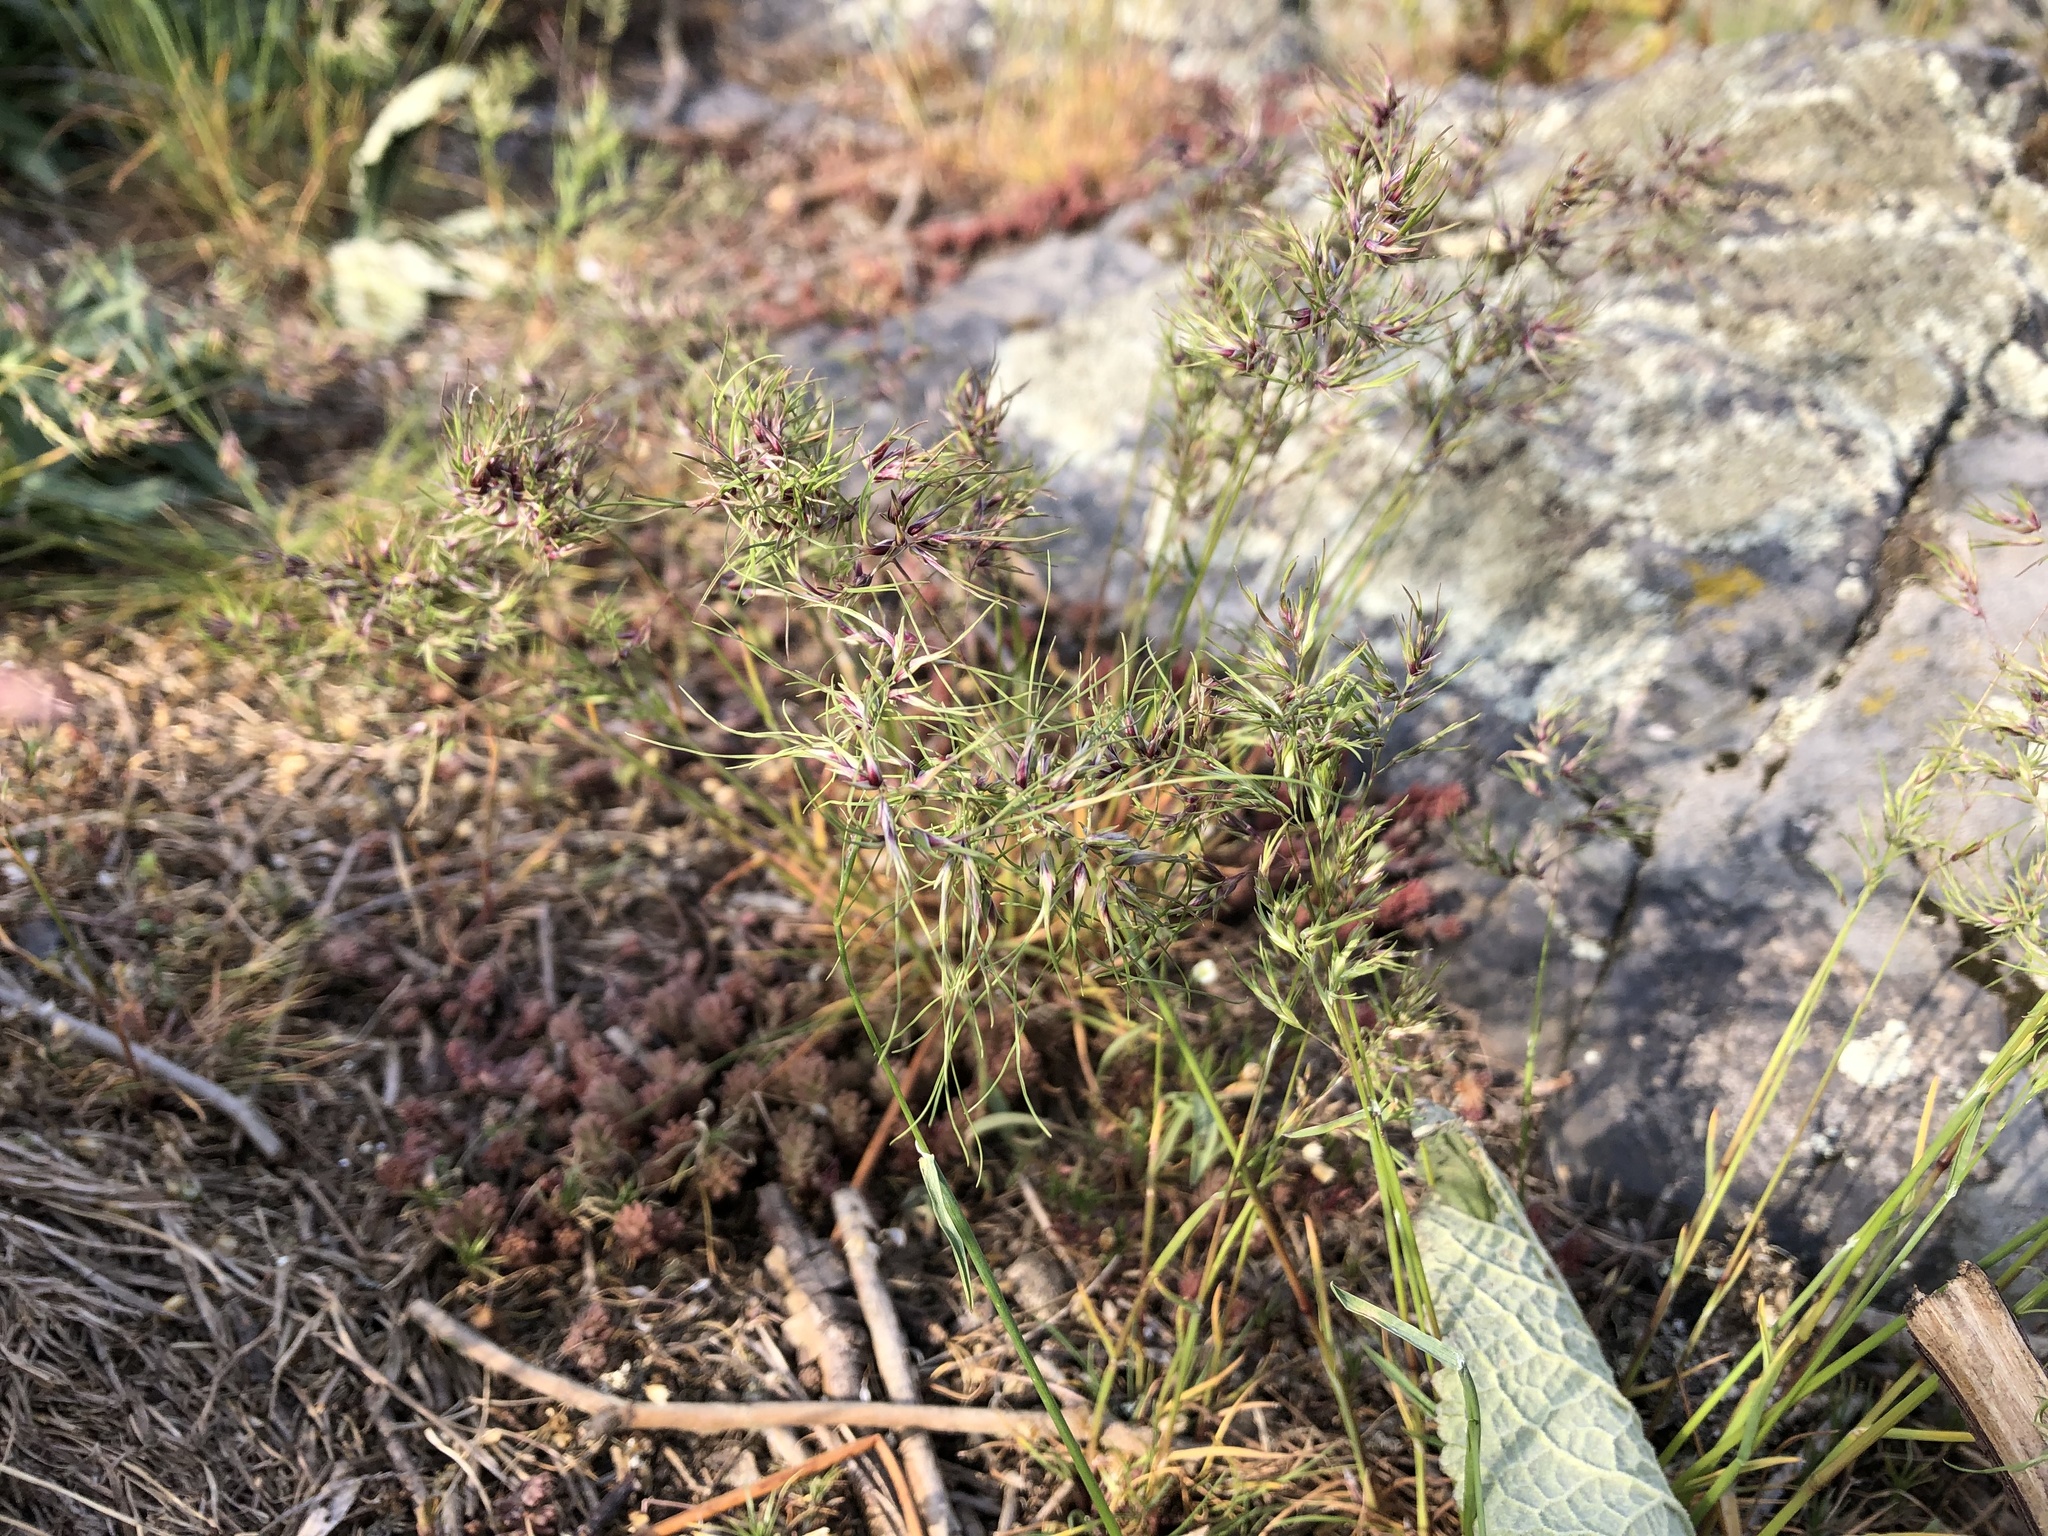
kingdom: Plantae
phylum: Tracheophyta
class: Liliopsida
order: Poales
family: Poaceae
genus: Poa
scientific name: Poa bulbosa
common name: Bulbous bluegrass
